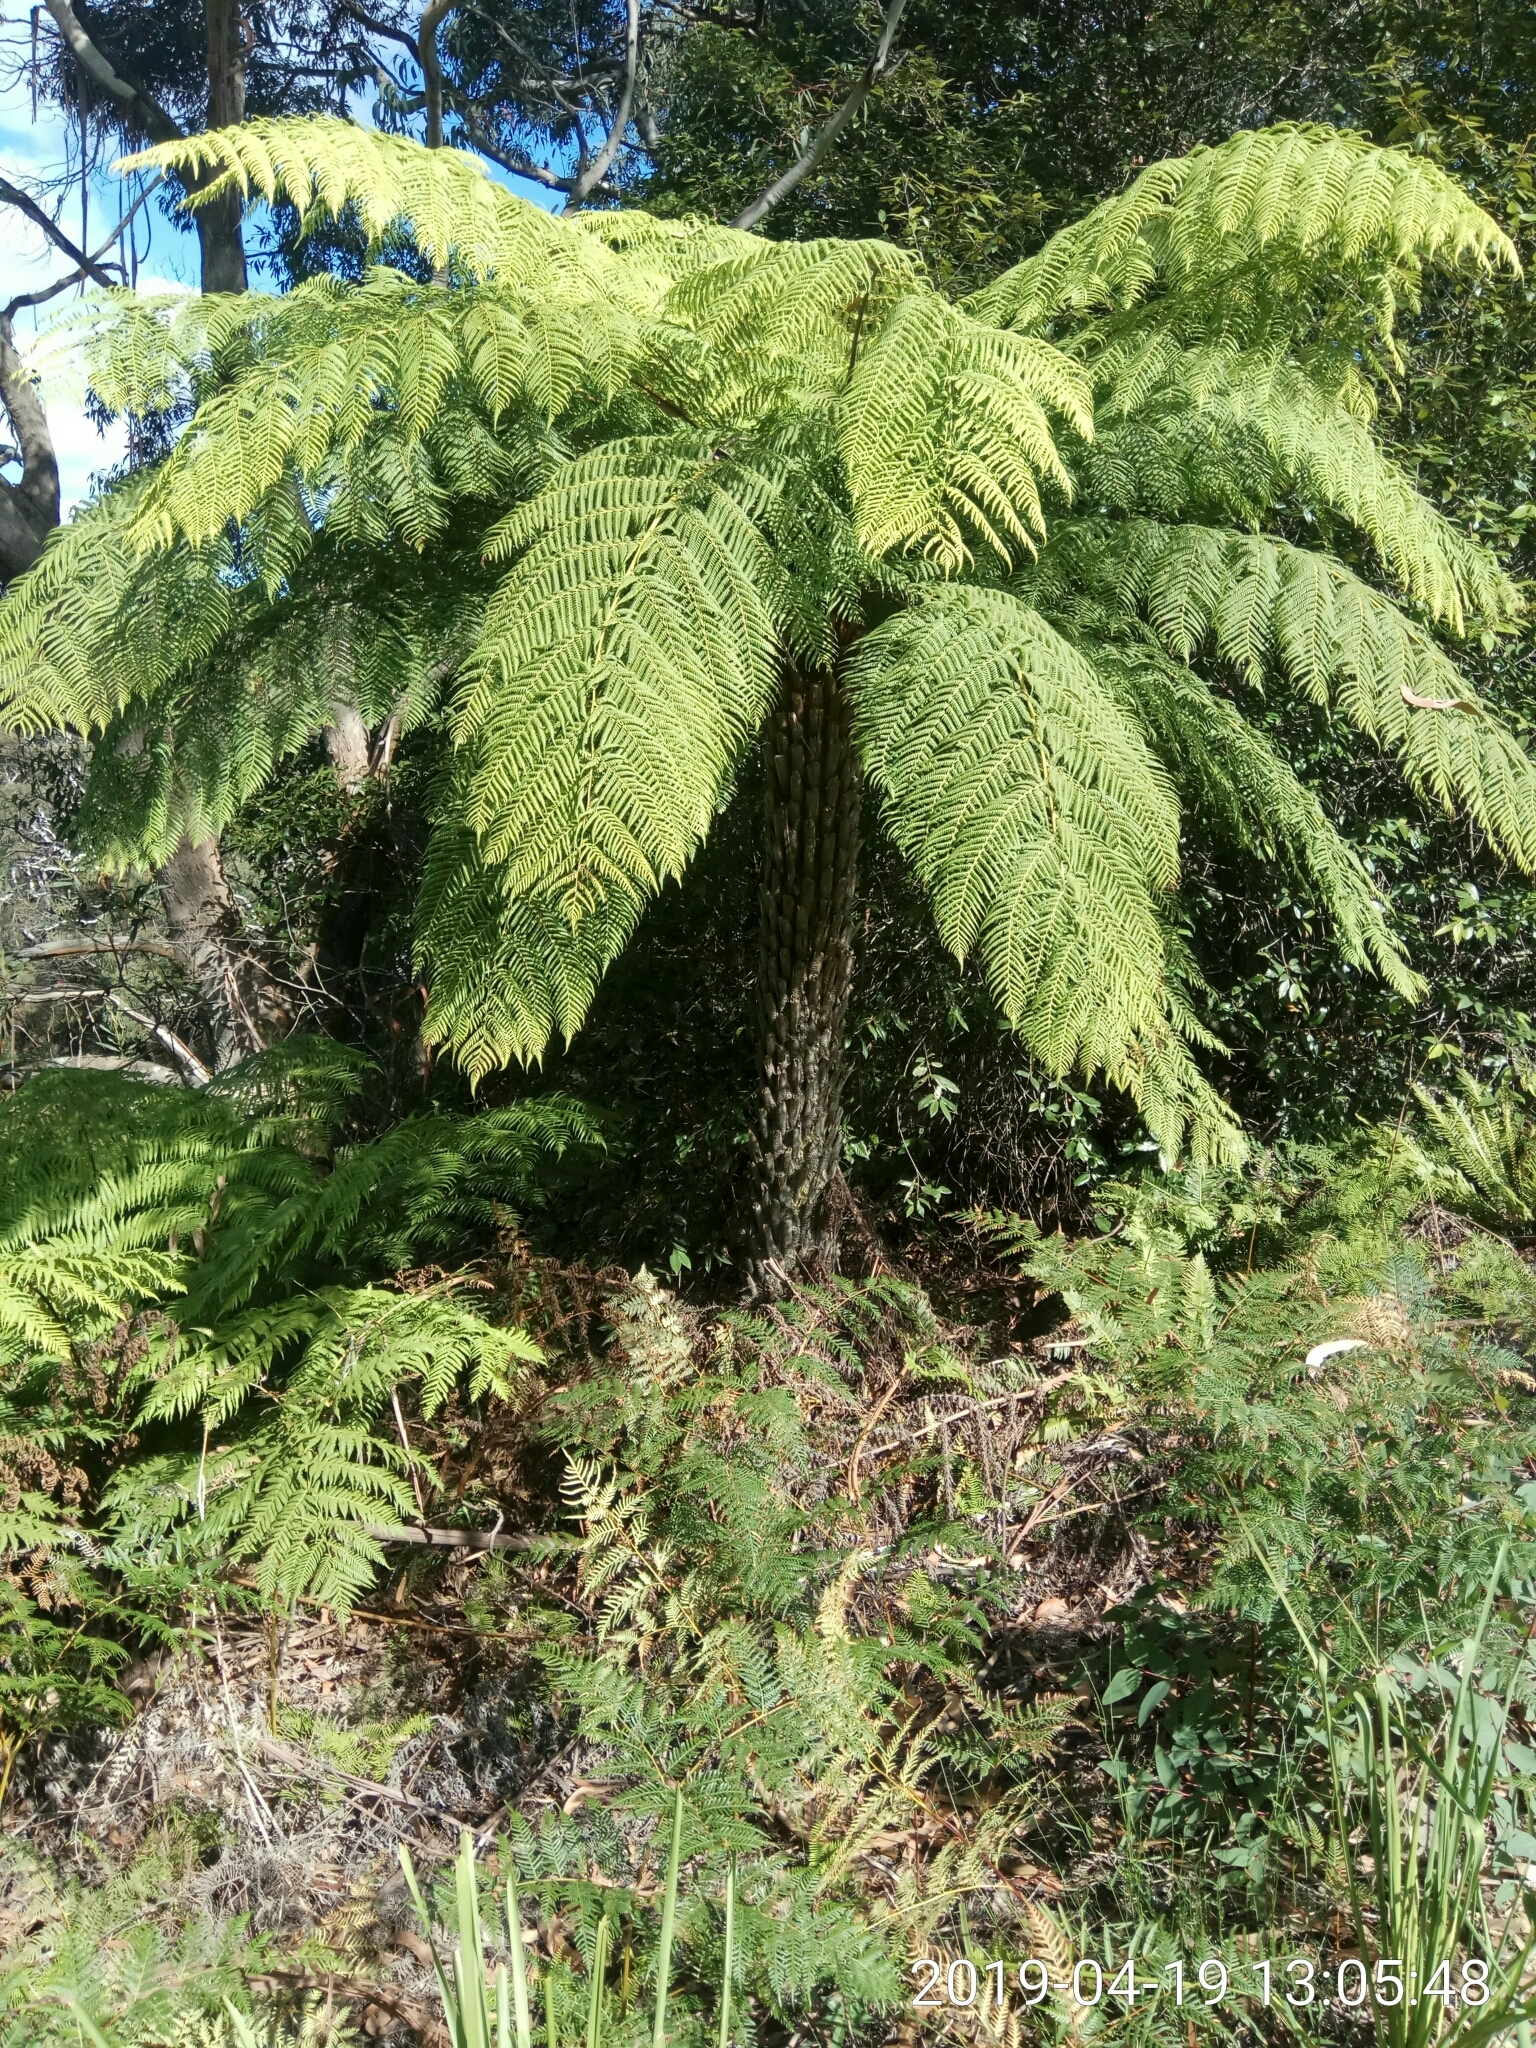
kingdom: Plantae
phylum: Tracheophyta
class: Polypodiopsida
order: Cyatheales
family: Cyatheaceae
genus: Alsophila
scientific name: Alsophila australis
